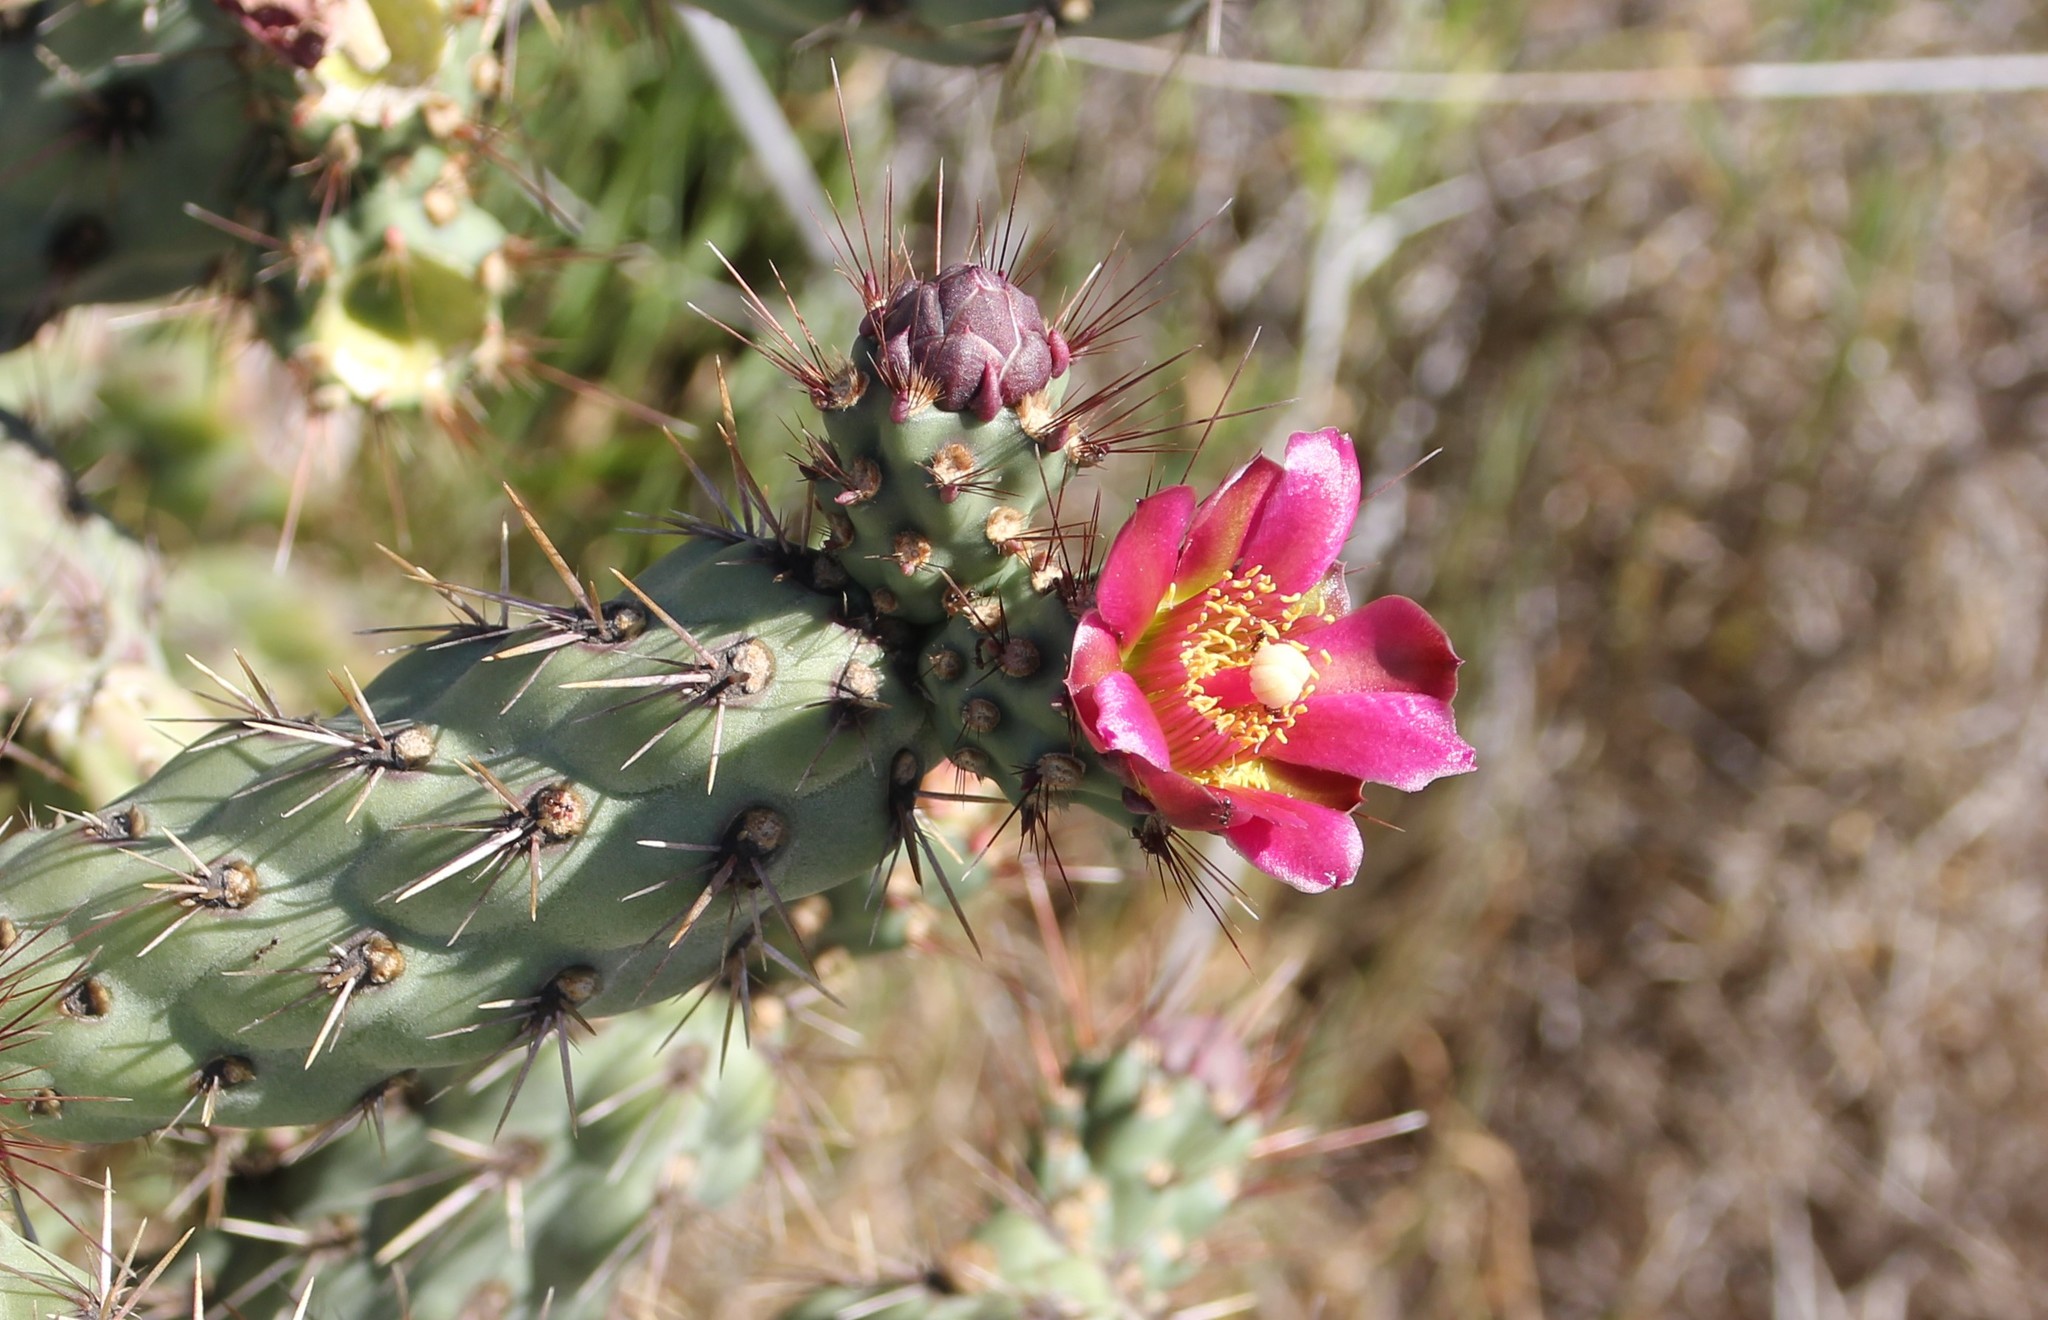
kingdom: Plantae
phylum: Tracheophyta
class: Magnoliopsida
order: Caryophyllales
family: Cactaceae
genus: Cylindropuntia
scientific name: Cylindropuntia prolifera
